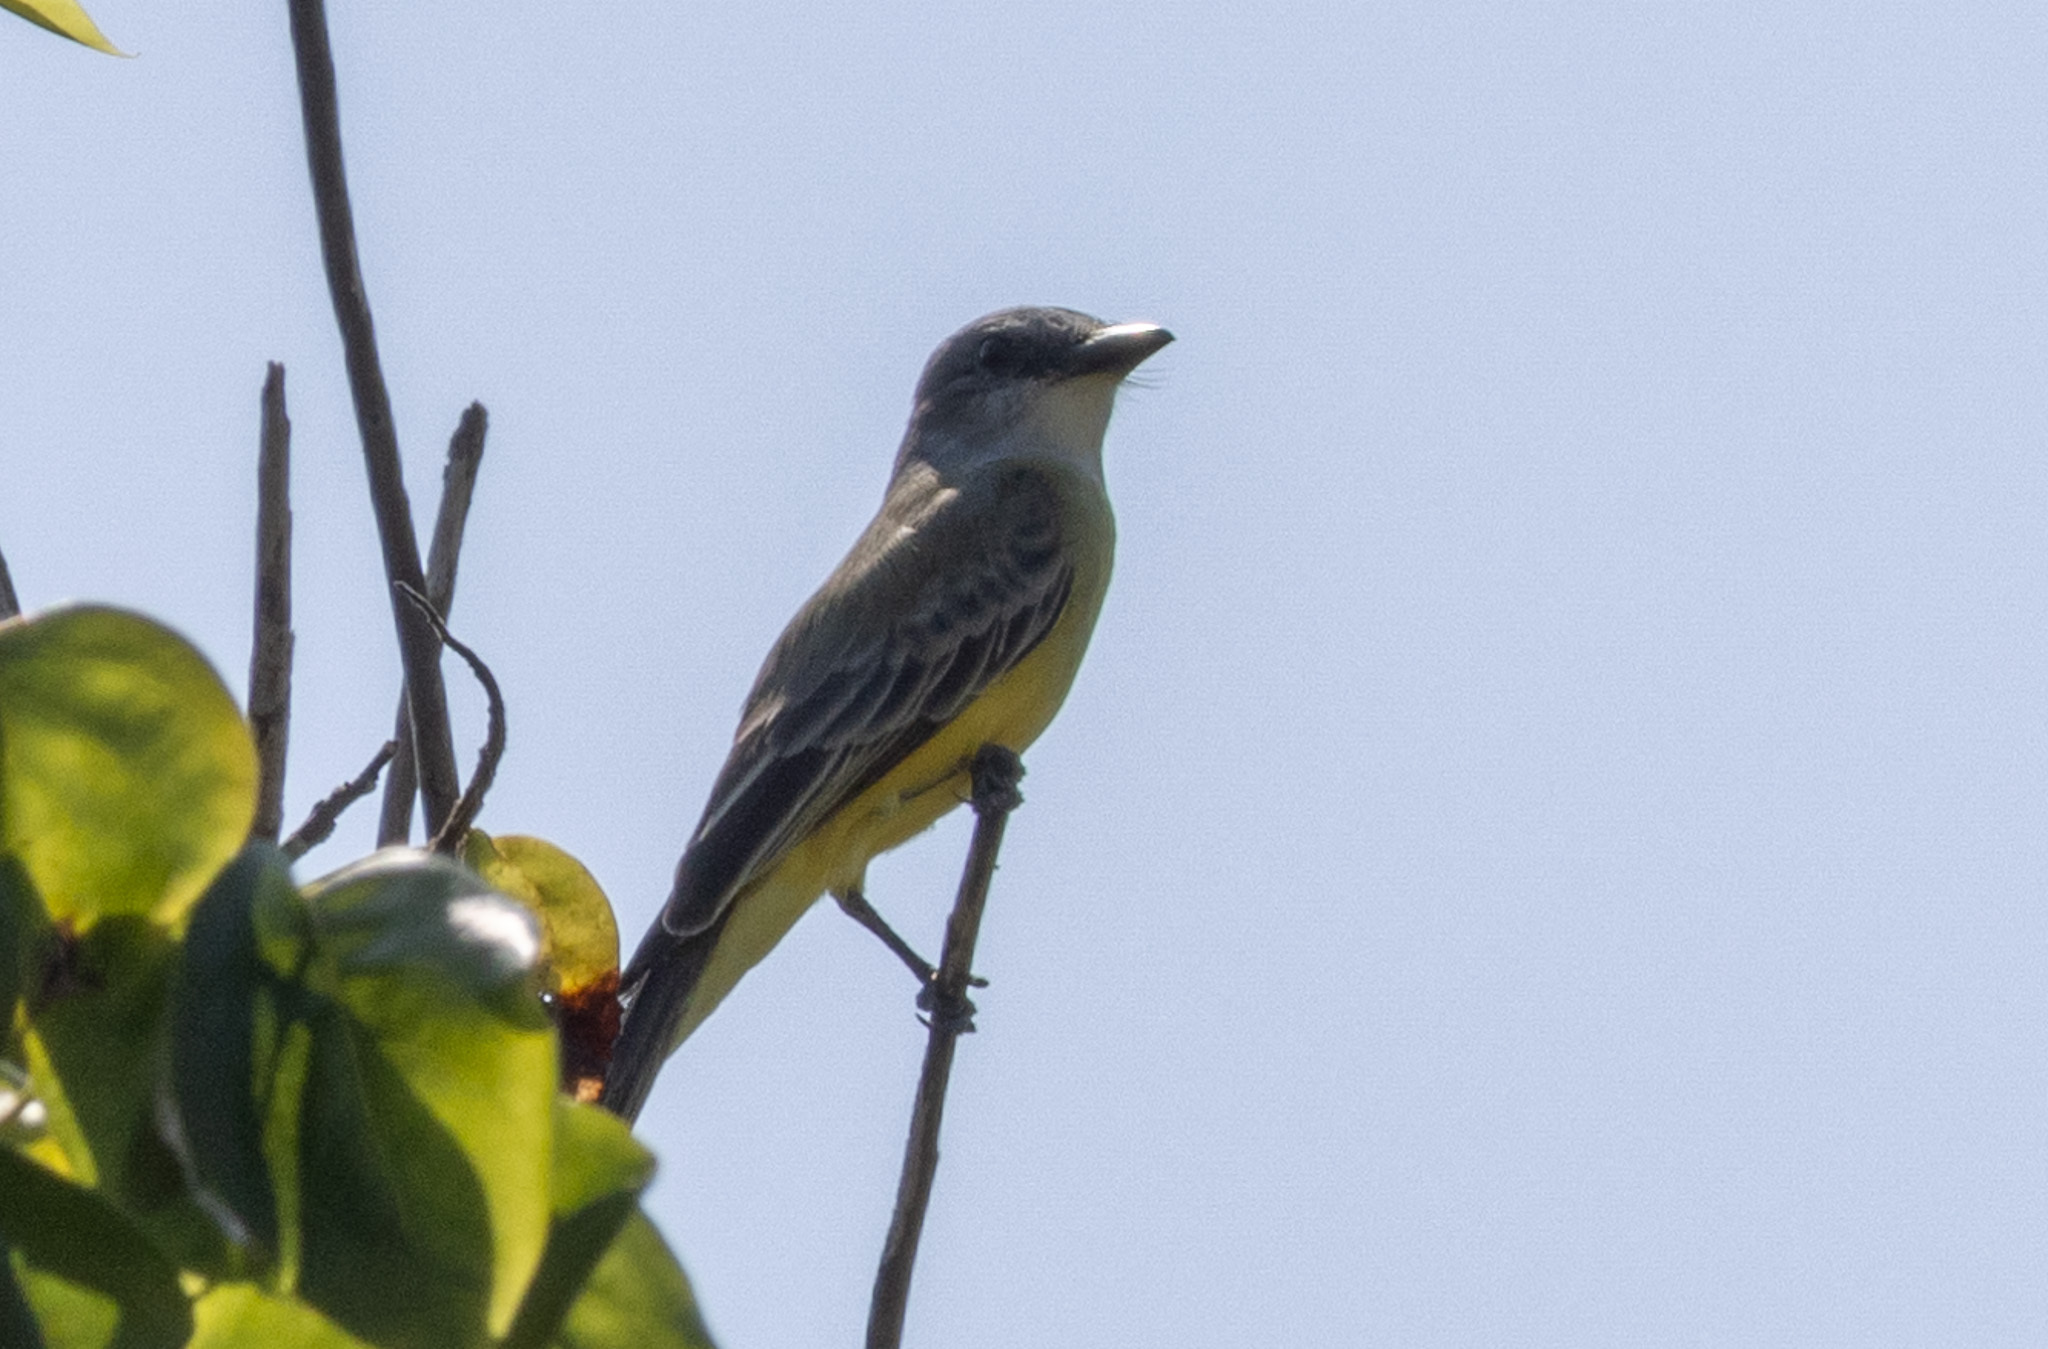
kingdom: Animalia
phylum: Chordata
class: Aves
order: Passeriformes
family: Tyrannidae
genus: Tyrannus
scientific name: Tyrannus melancholicus
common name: Tropical kingbird
